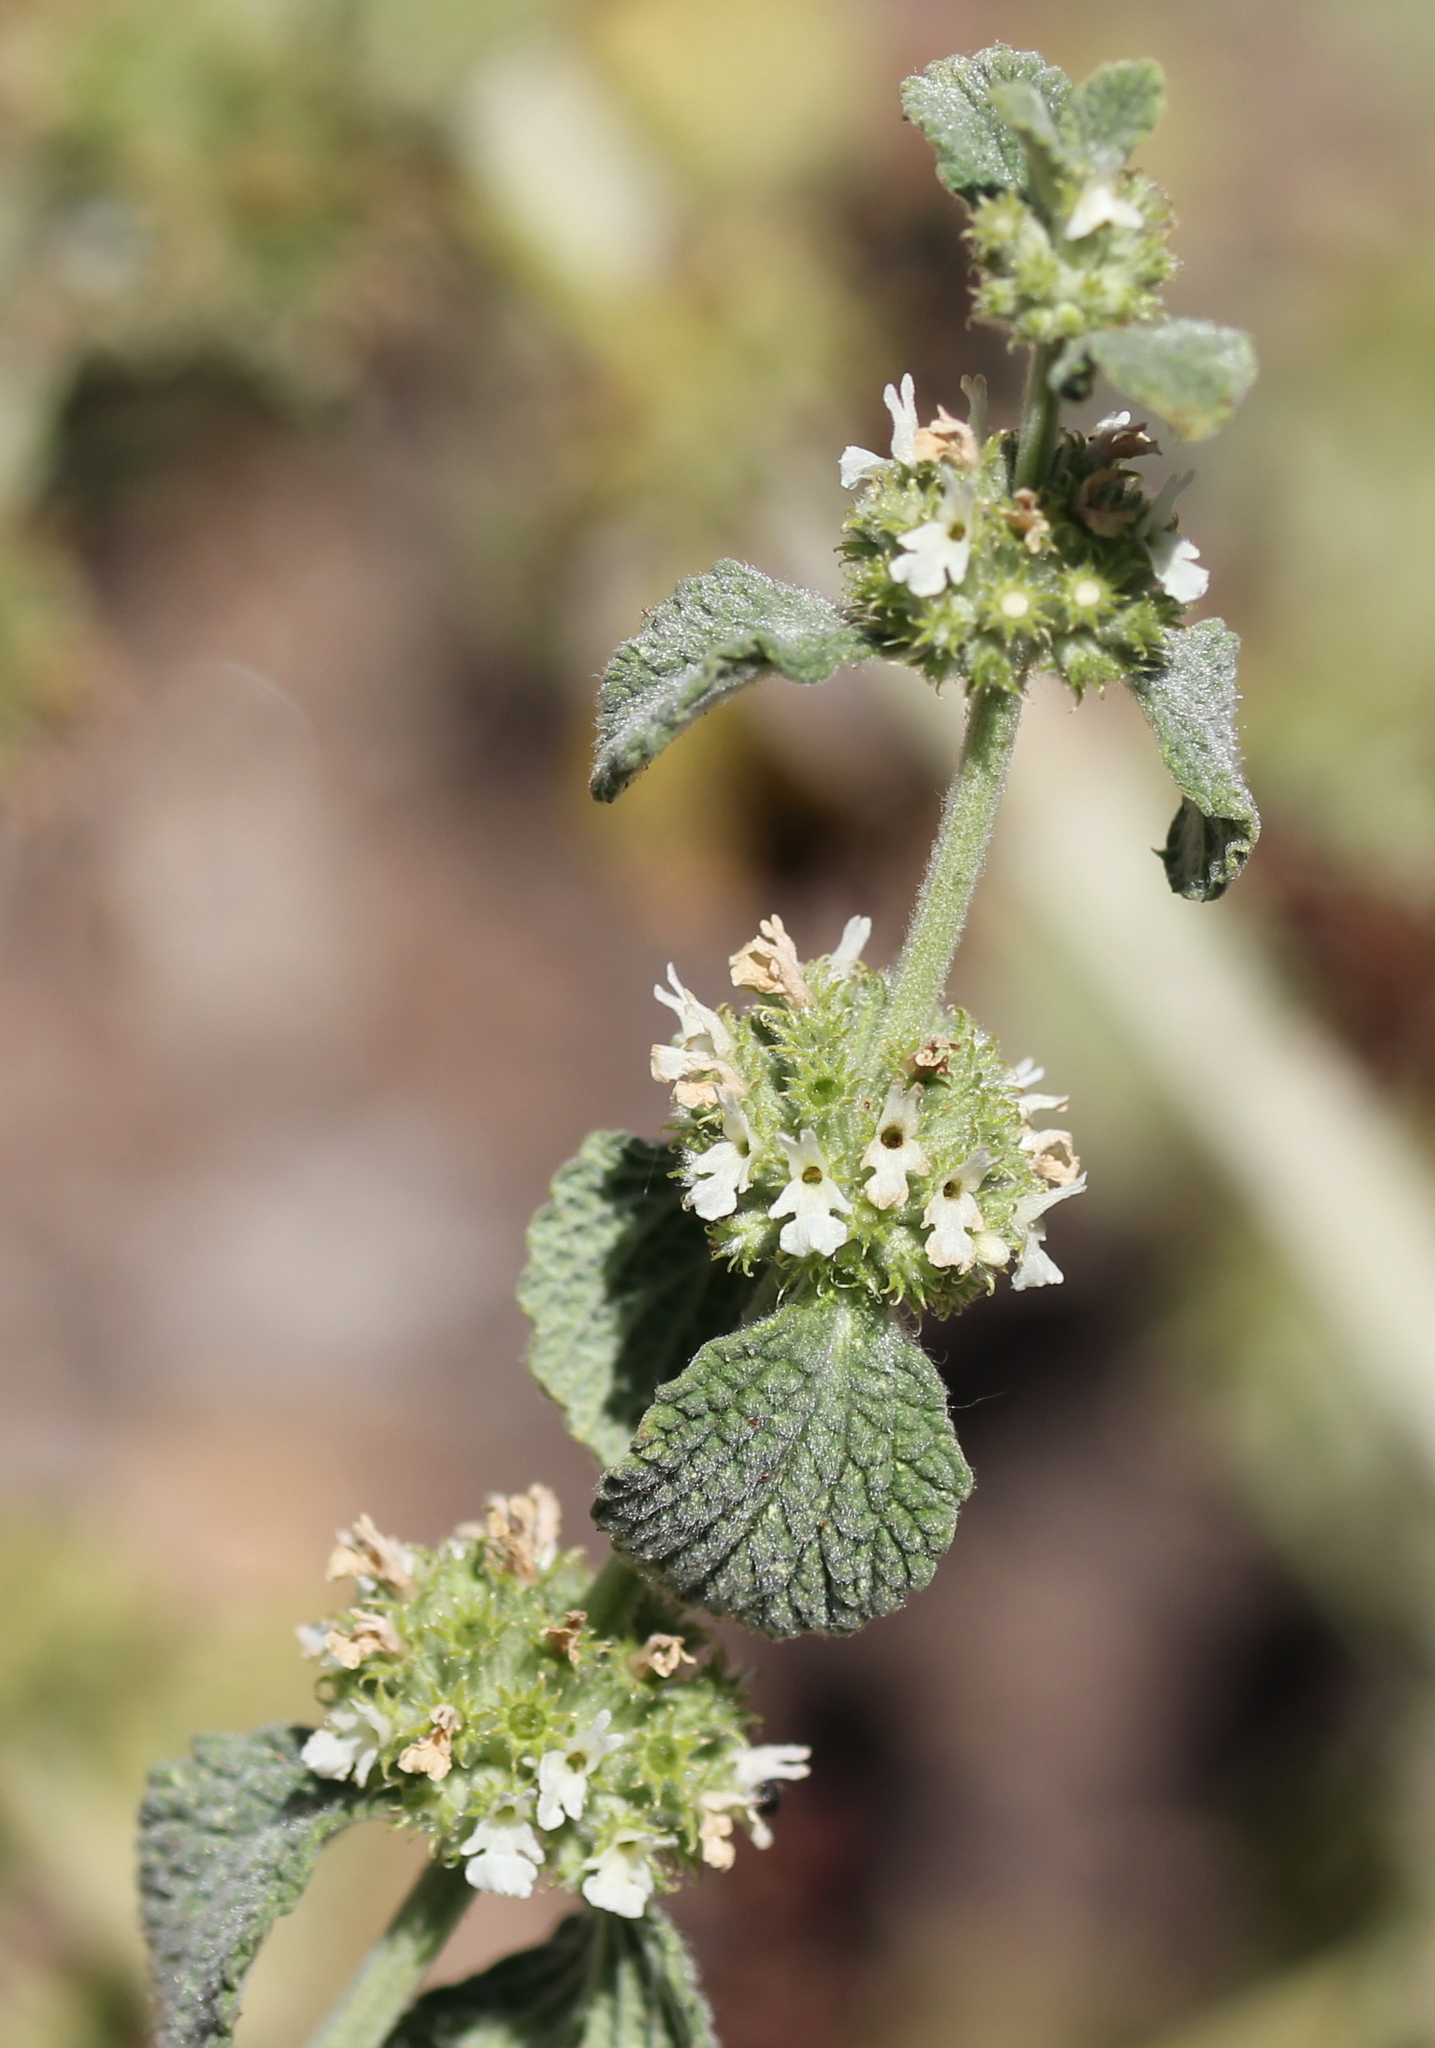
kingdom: Plantae
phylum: Tracheophyta
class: Magnoliopsida
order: Lamiales
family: Lamiaceae
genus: Marrubium
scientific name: Marrubium vulgare
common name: Horehound
